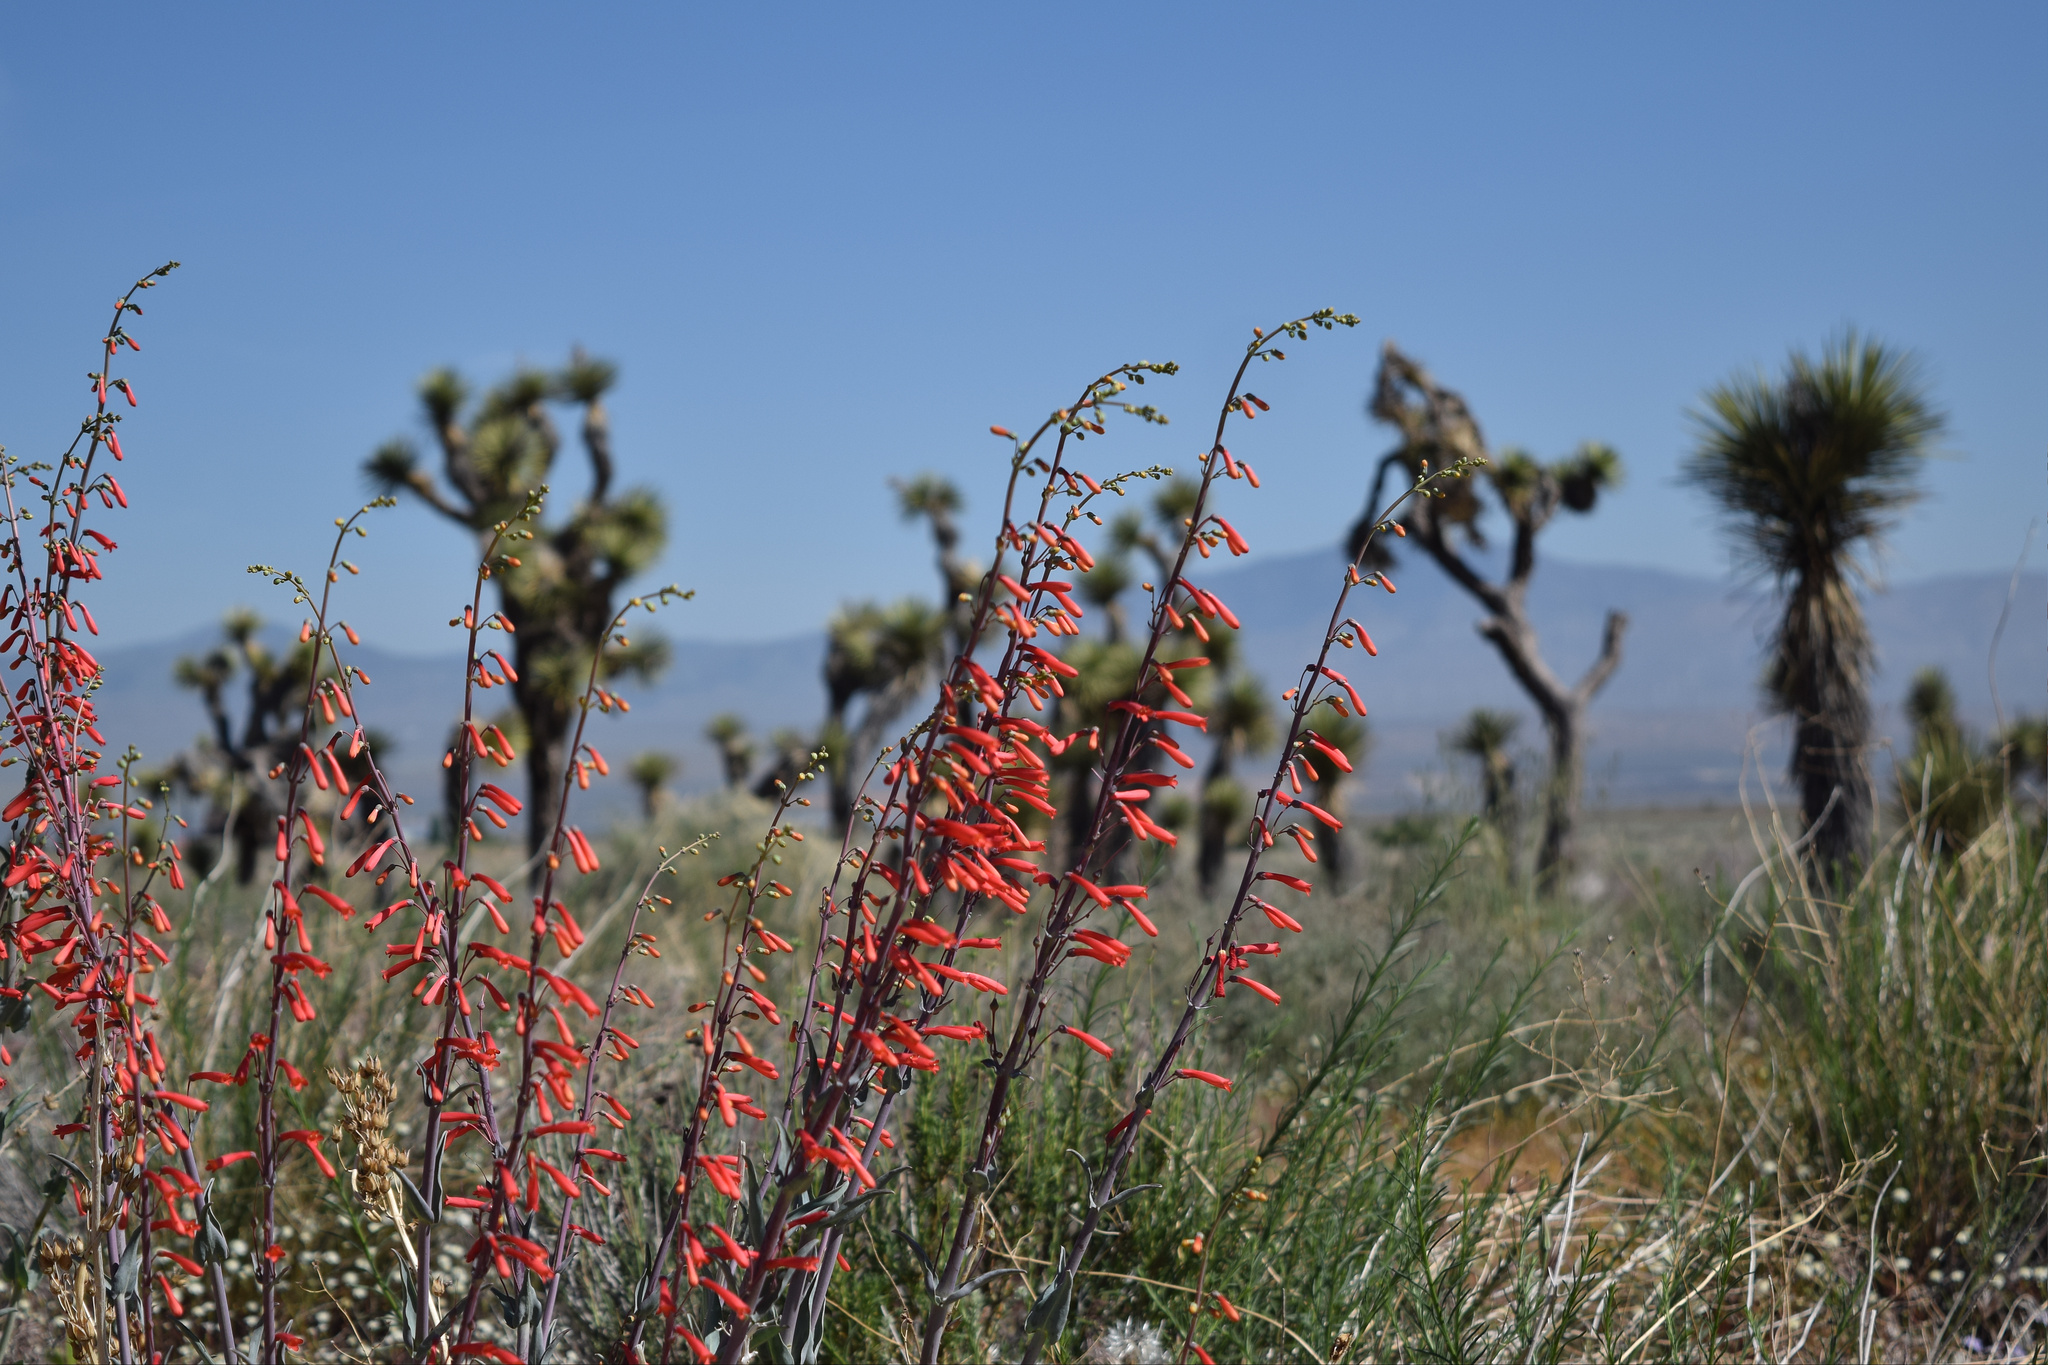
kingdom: Plantae
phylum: Tracheophyta
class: Magnoliopsida
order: Lamiales
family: Plantaginaceae
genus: Penstemon
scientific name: Penstemon centranthifolius
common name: Scarlet bugler
